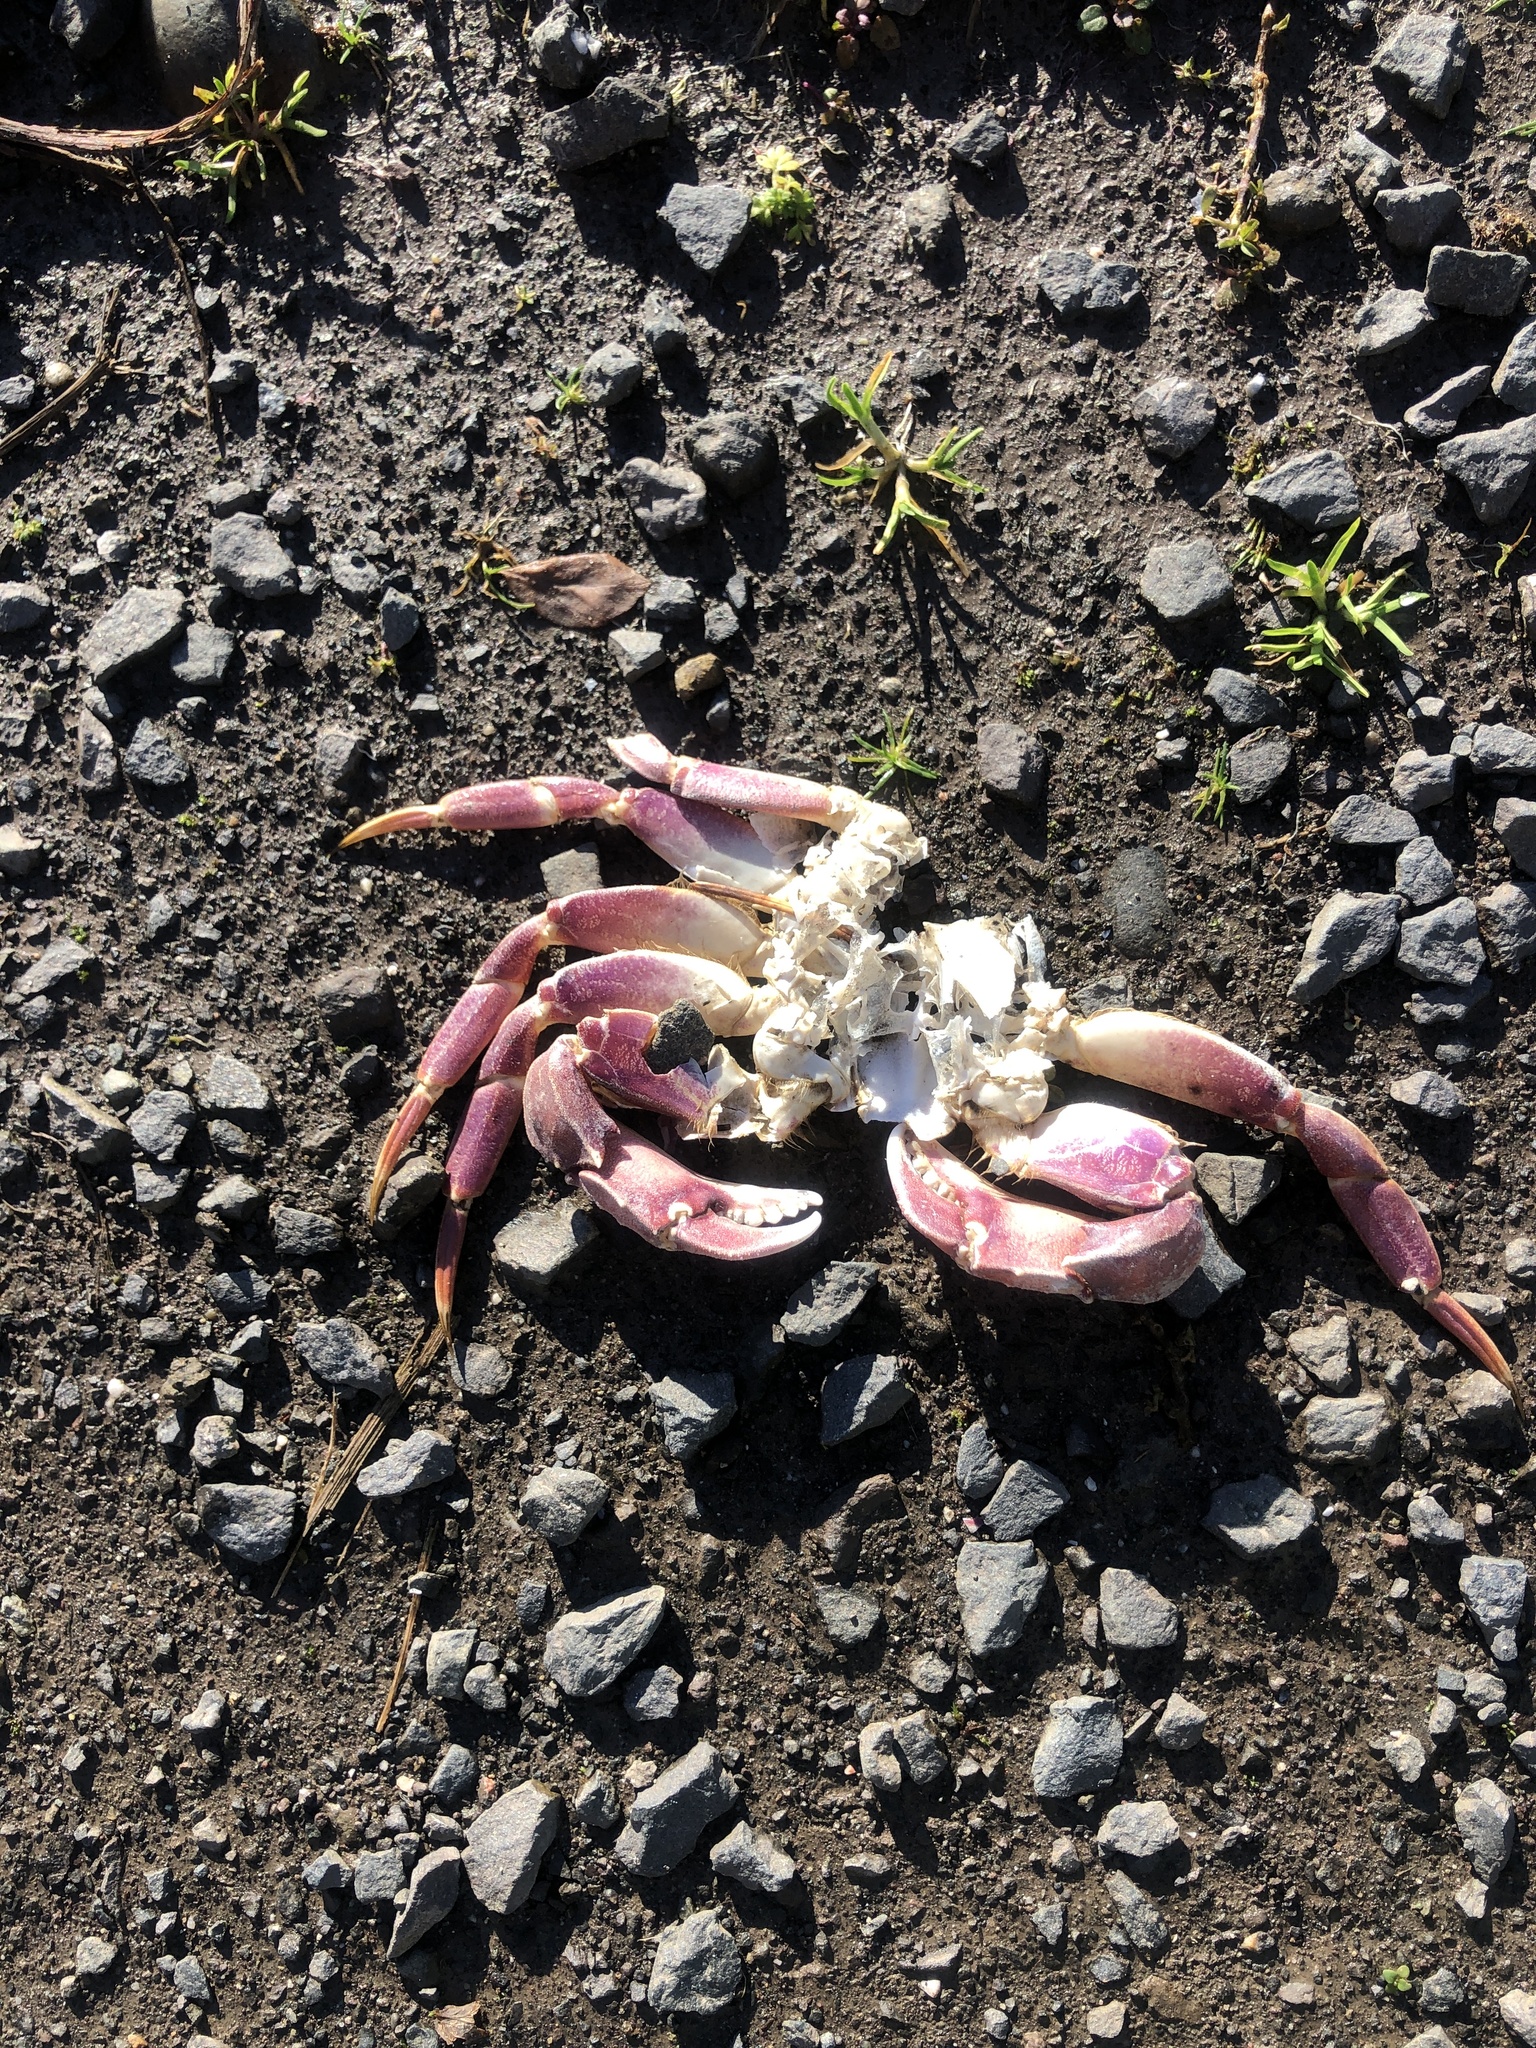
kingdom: Animalia
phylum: Arthropoda
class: Malacostraca
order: Decapoda
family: Cancridae
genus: Metacarcinus
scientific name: Metacarcinus gracilis
